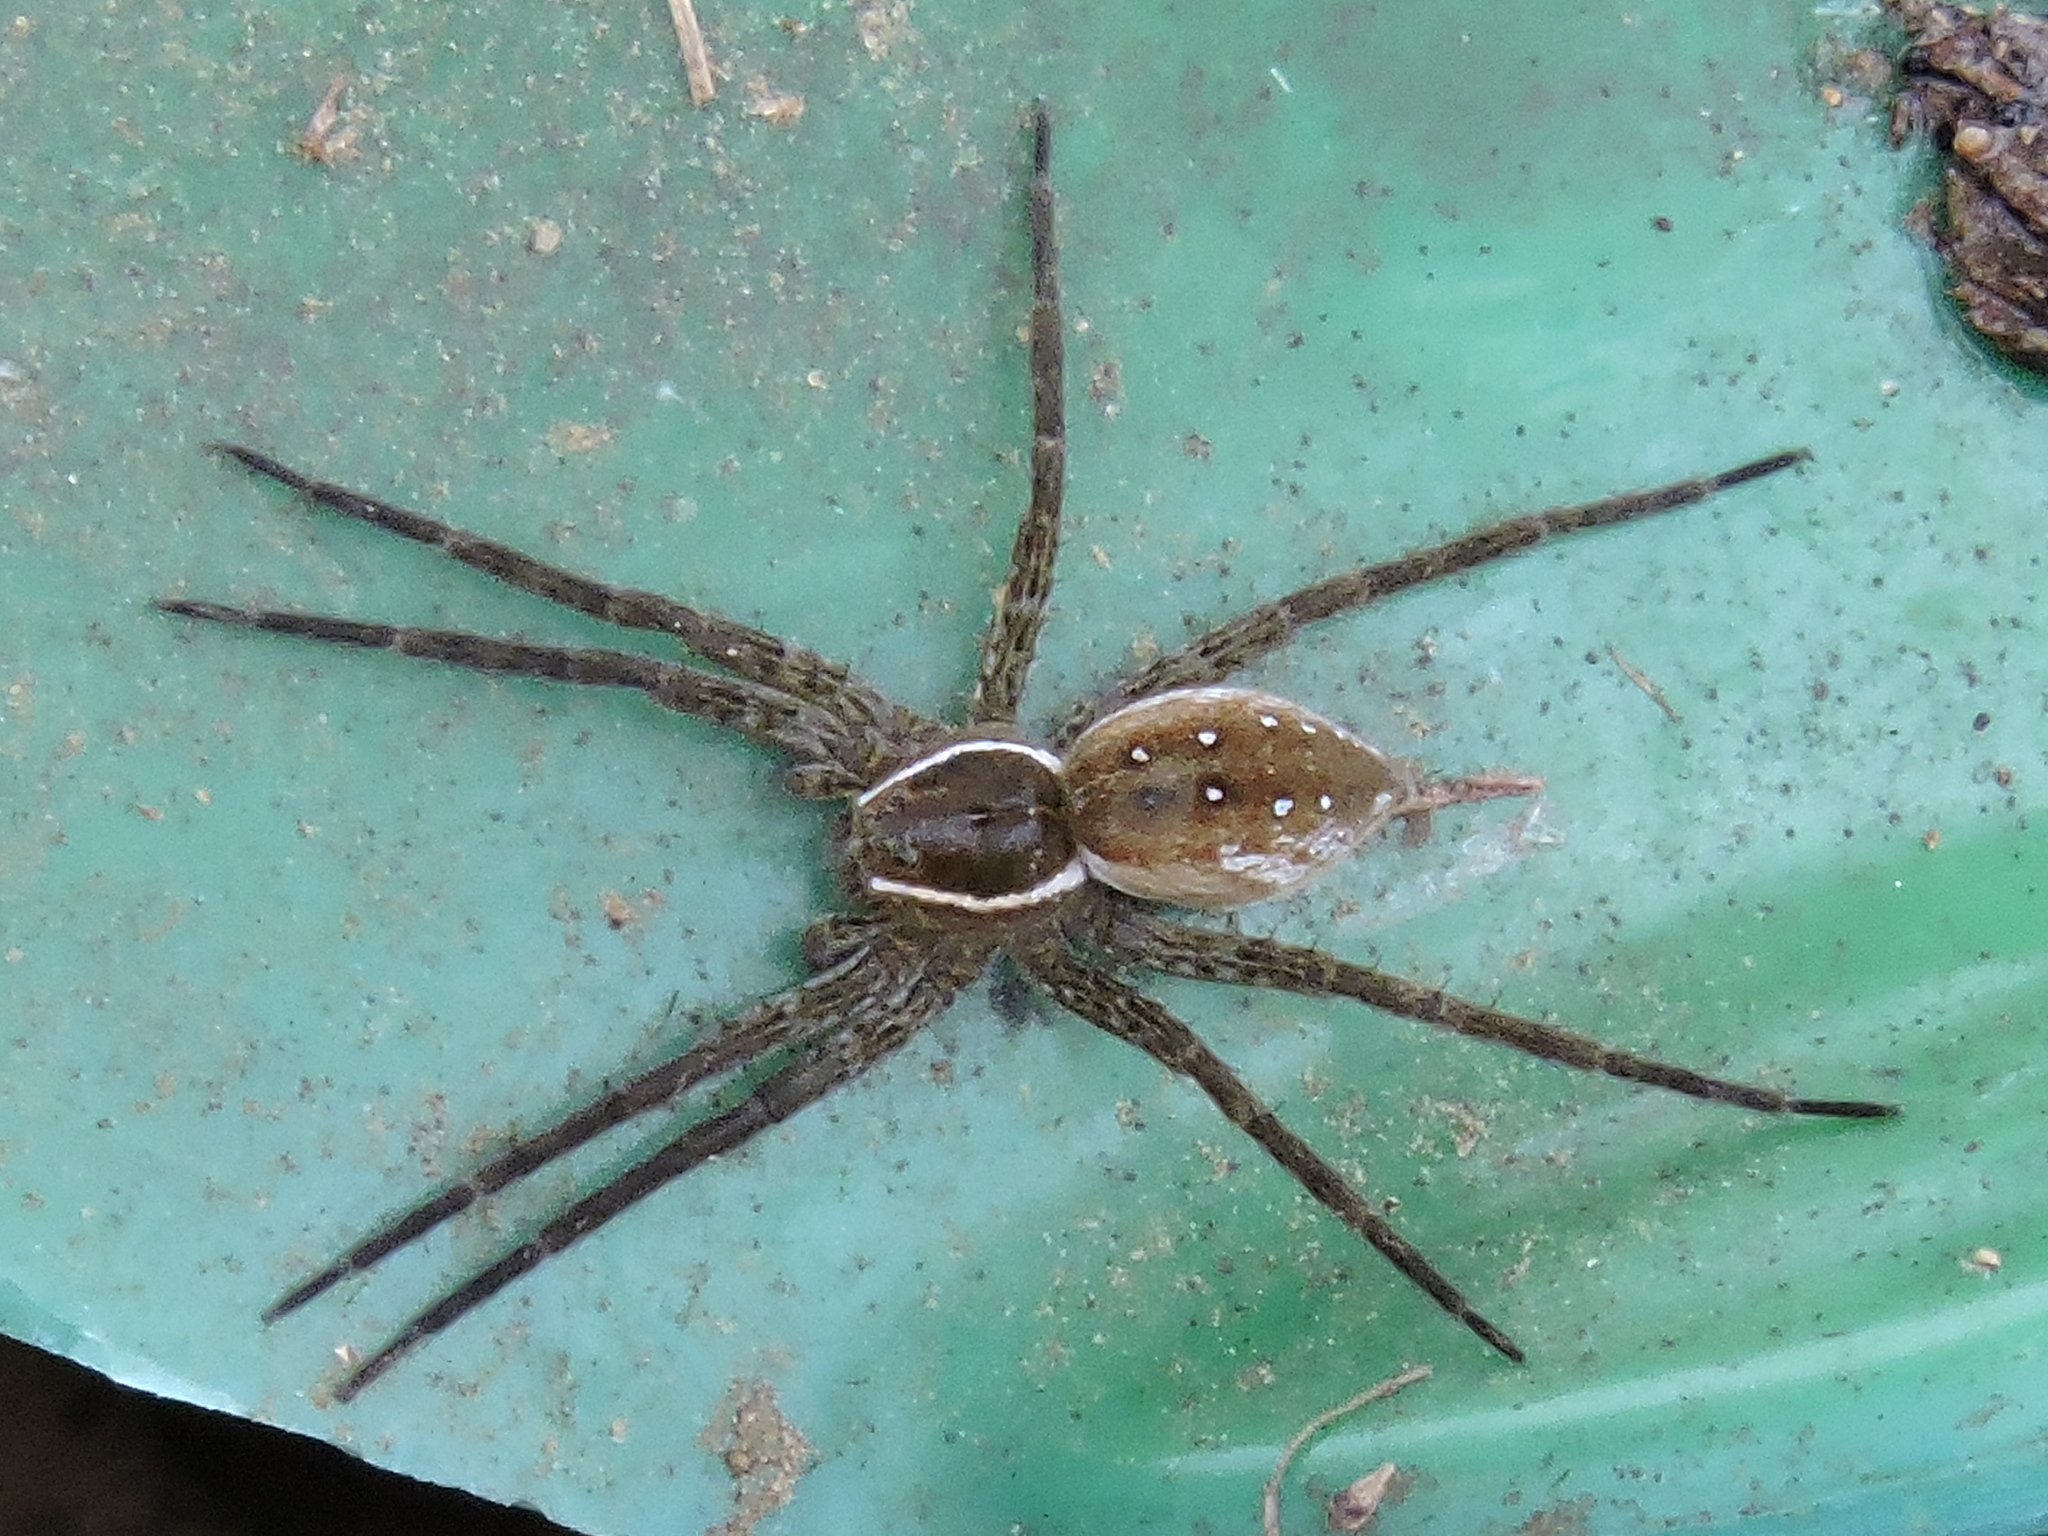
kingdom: Animalia
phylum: Arthropoda
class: Arachnida
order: Araneae
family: Pisauridae
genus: Dolomedes
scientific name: Dolomedes triton
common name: Six-spotted fishing spider
